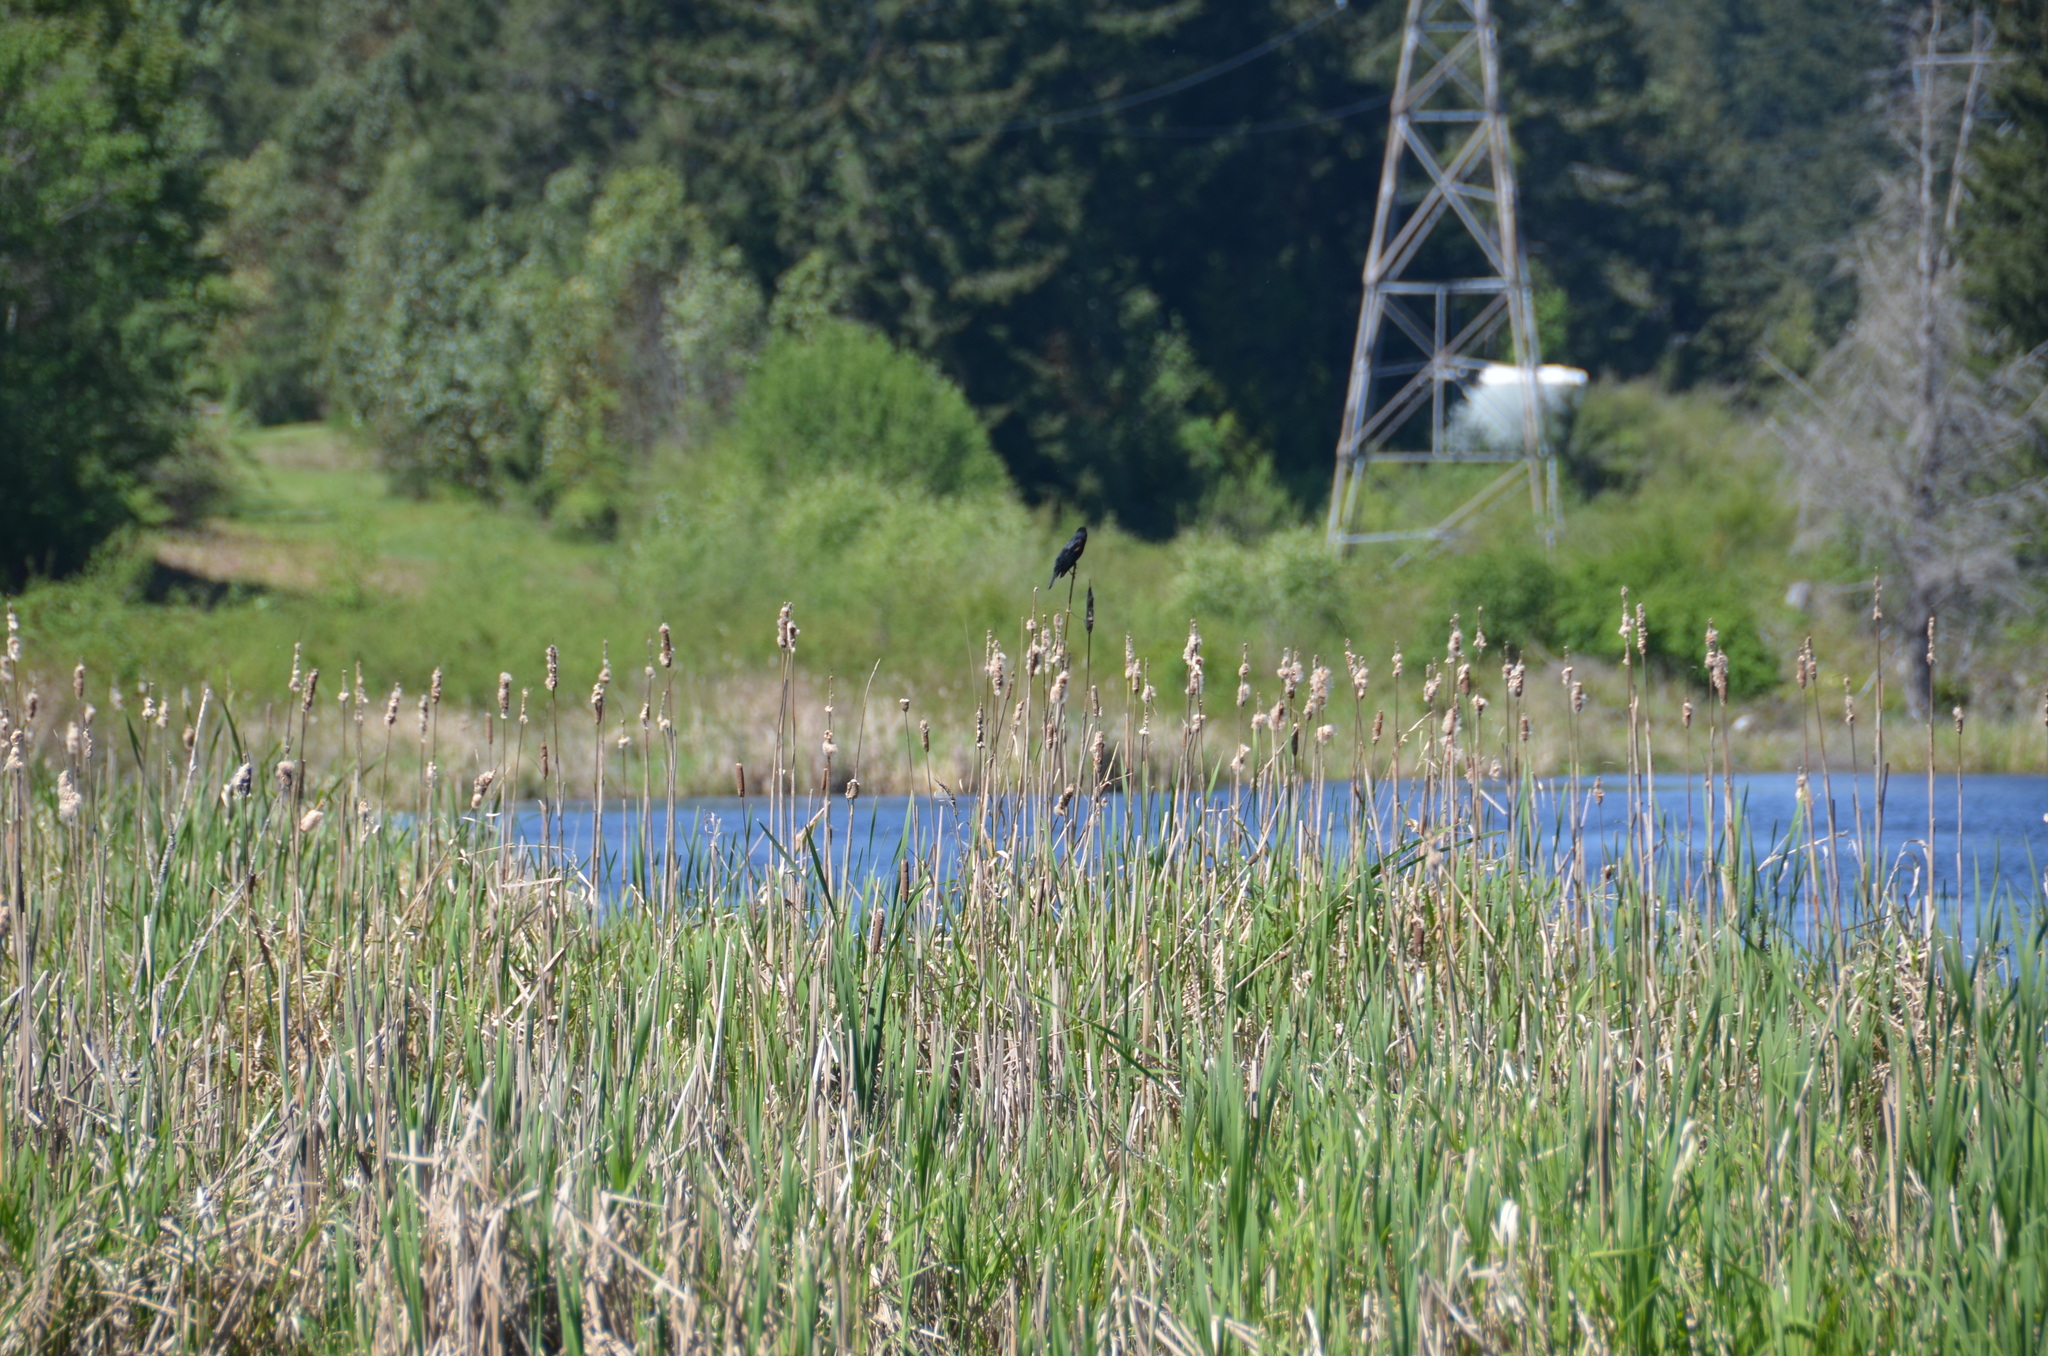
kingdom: Animalia
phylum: Chordata
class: Aves
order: Passeriformes
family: Icteridae
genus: Agelaius
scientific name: Agelaius phoeniceus
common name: Red-winged blackbird
